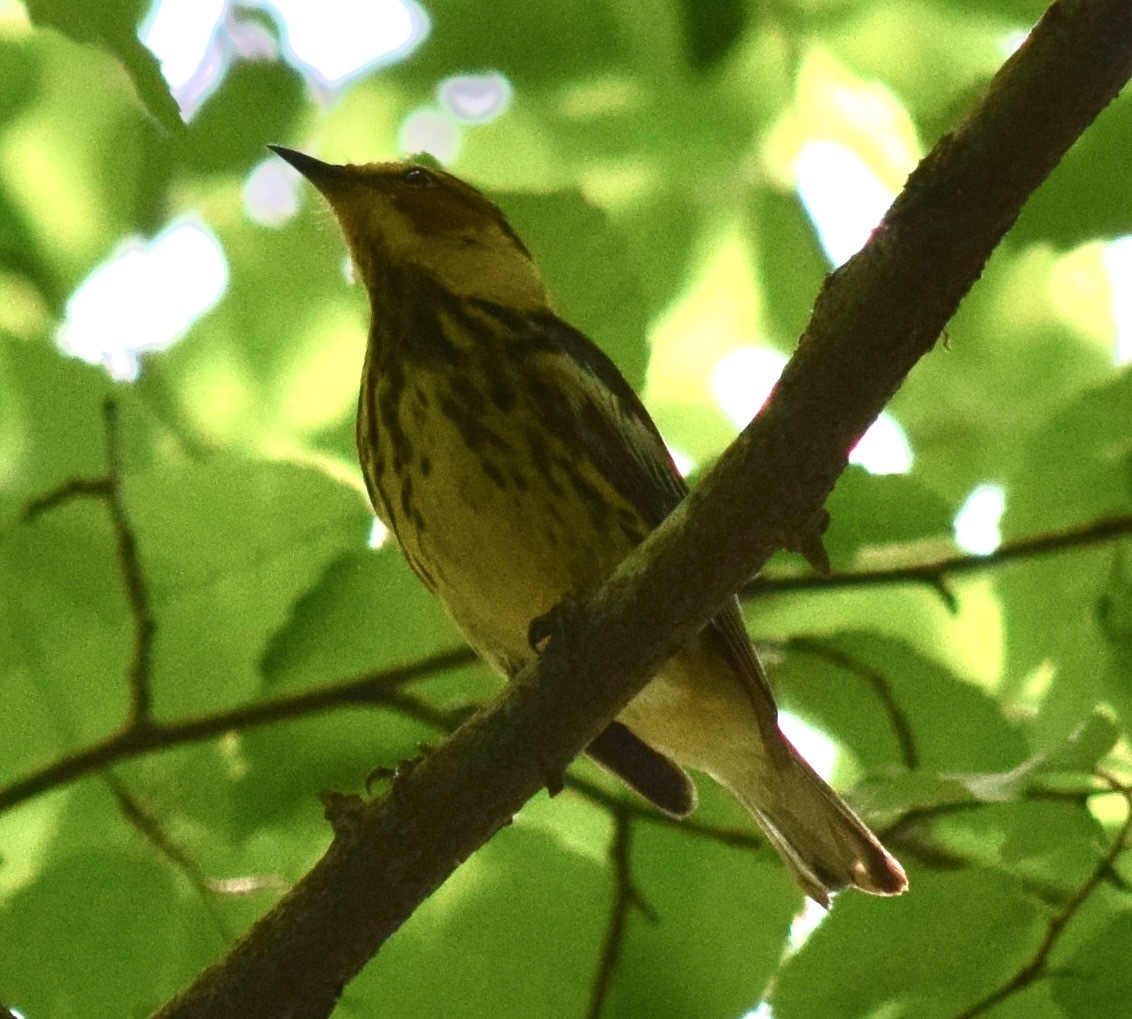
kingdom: Animalia
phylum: Chordata
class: Aves
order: Passeriformes
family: Parulidae
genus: Setophaga
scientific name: Setophaga tigrina
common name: Cape may warbler
